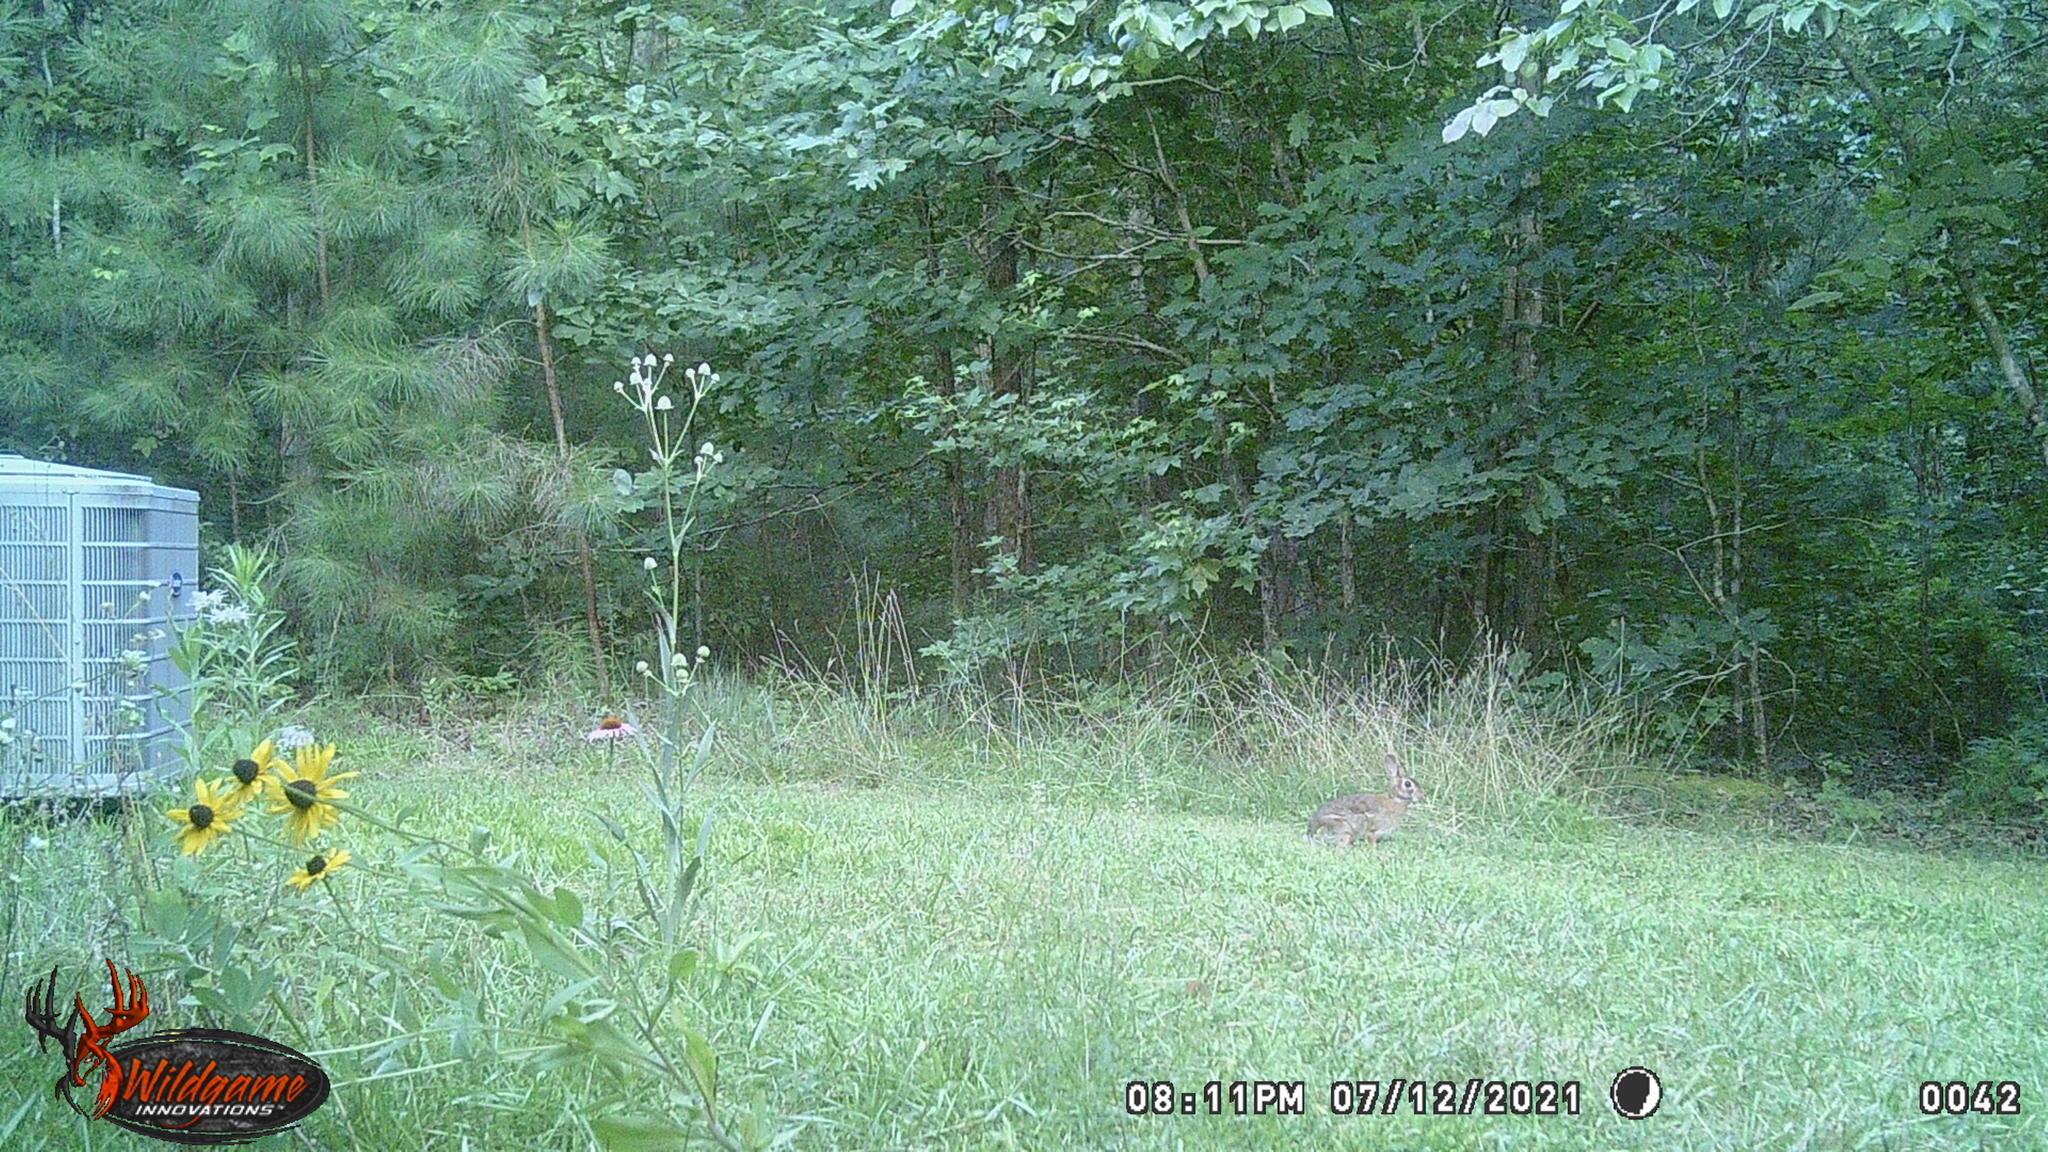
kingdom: Animalia
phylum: Chordata
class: Mammalia
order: Lagomorpha
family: Leporidae
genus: Sylvilagus
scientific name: Sylvilagus floridanus
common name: Eastern cottontail
